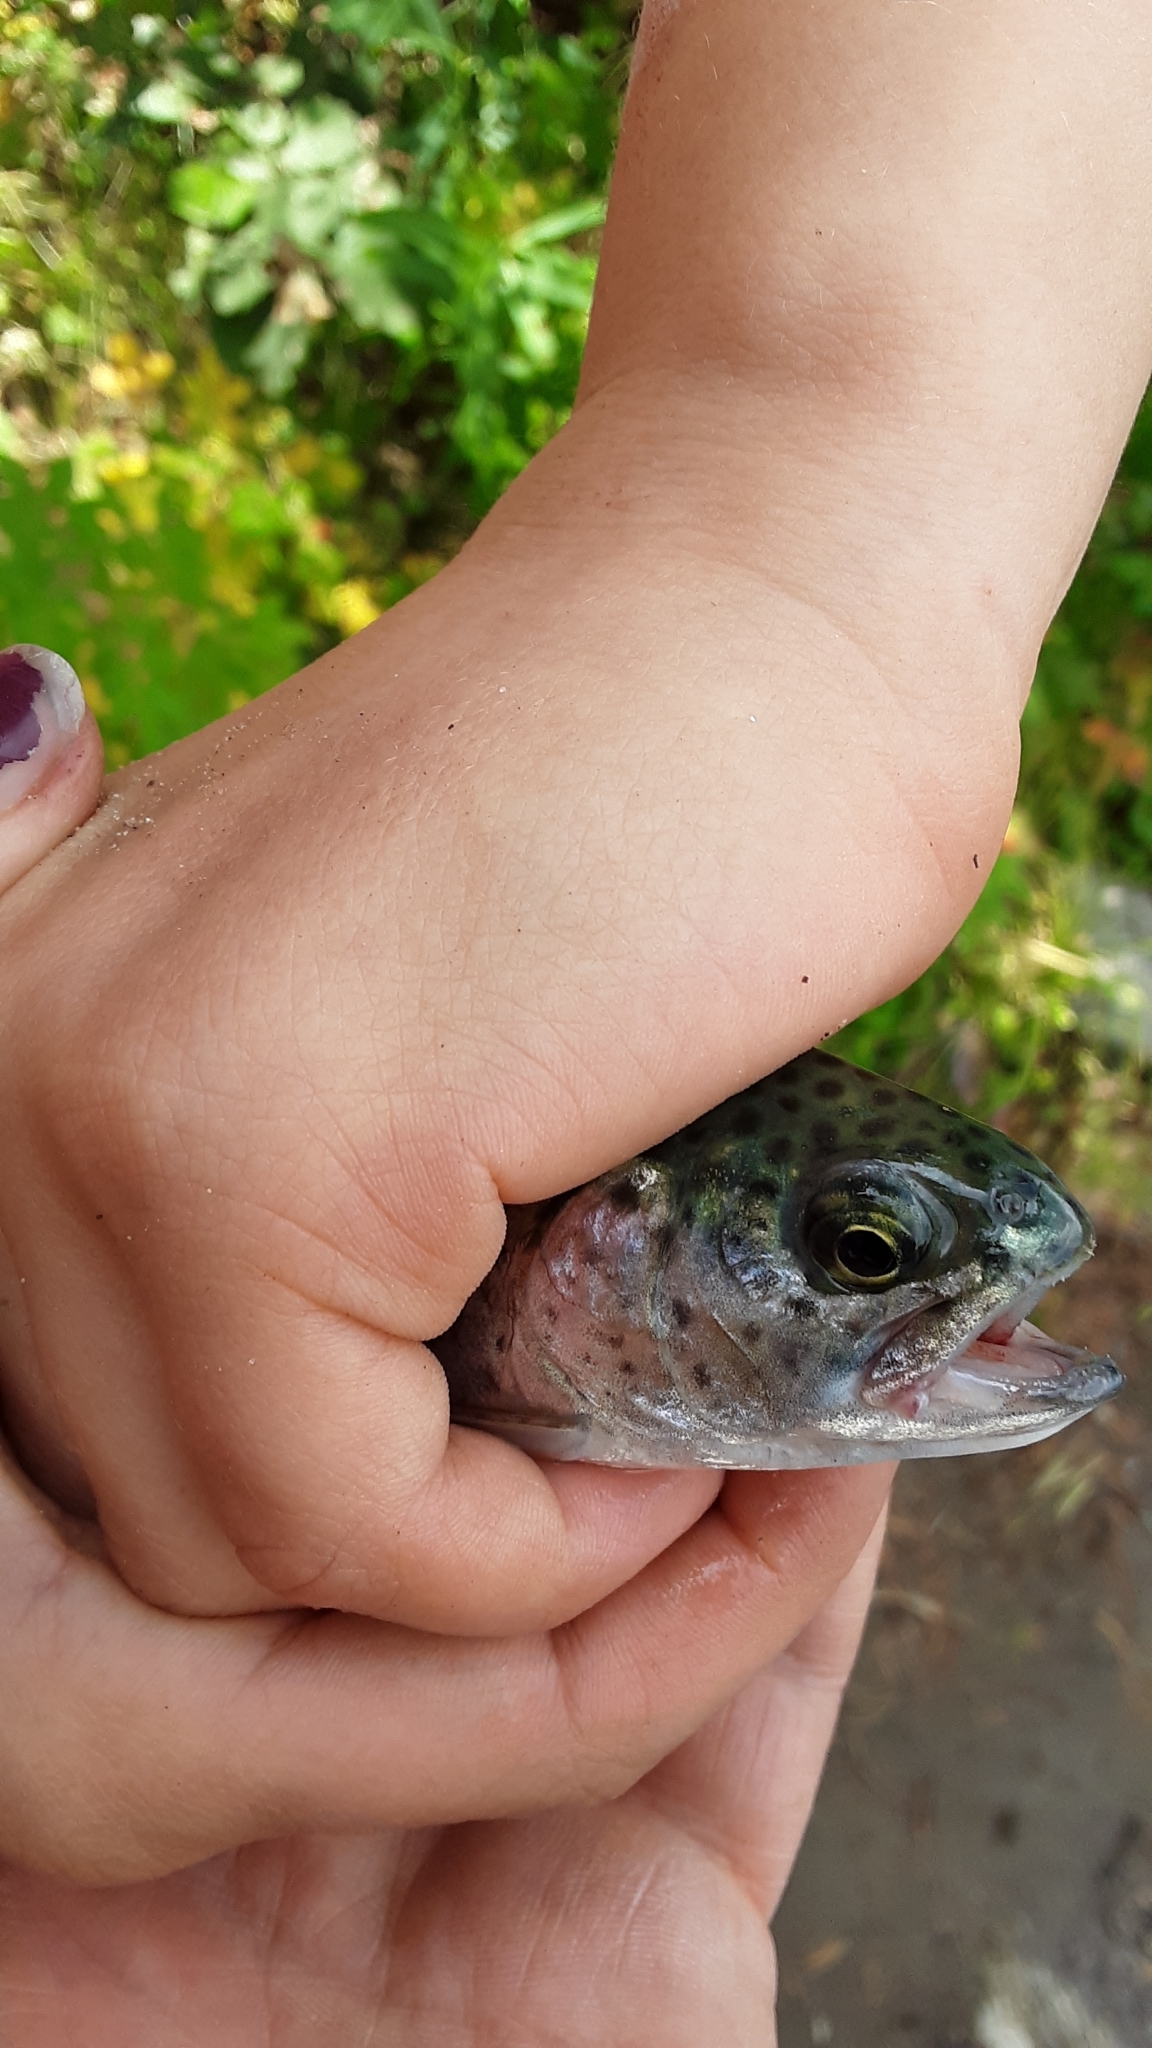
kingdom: Animalia
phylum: Chordata
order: Salmoniformes
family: Salmonidae
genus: Oncorhynchus
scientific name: Oncorhynchus mykiss
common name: Rainbow trout
